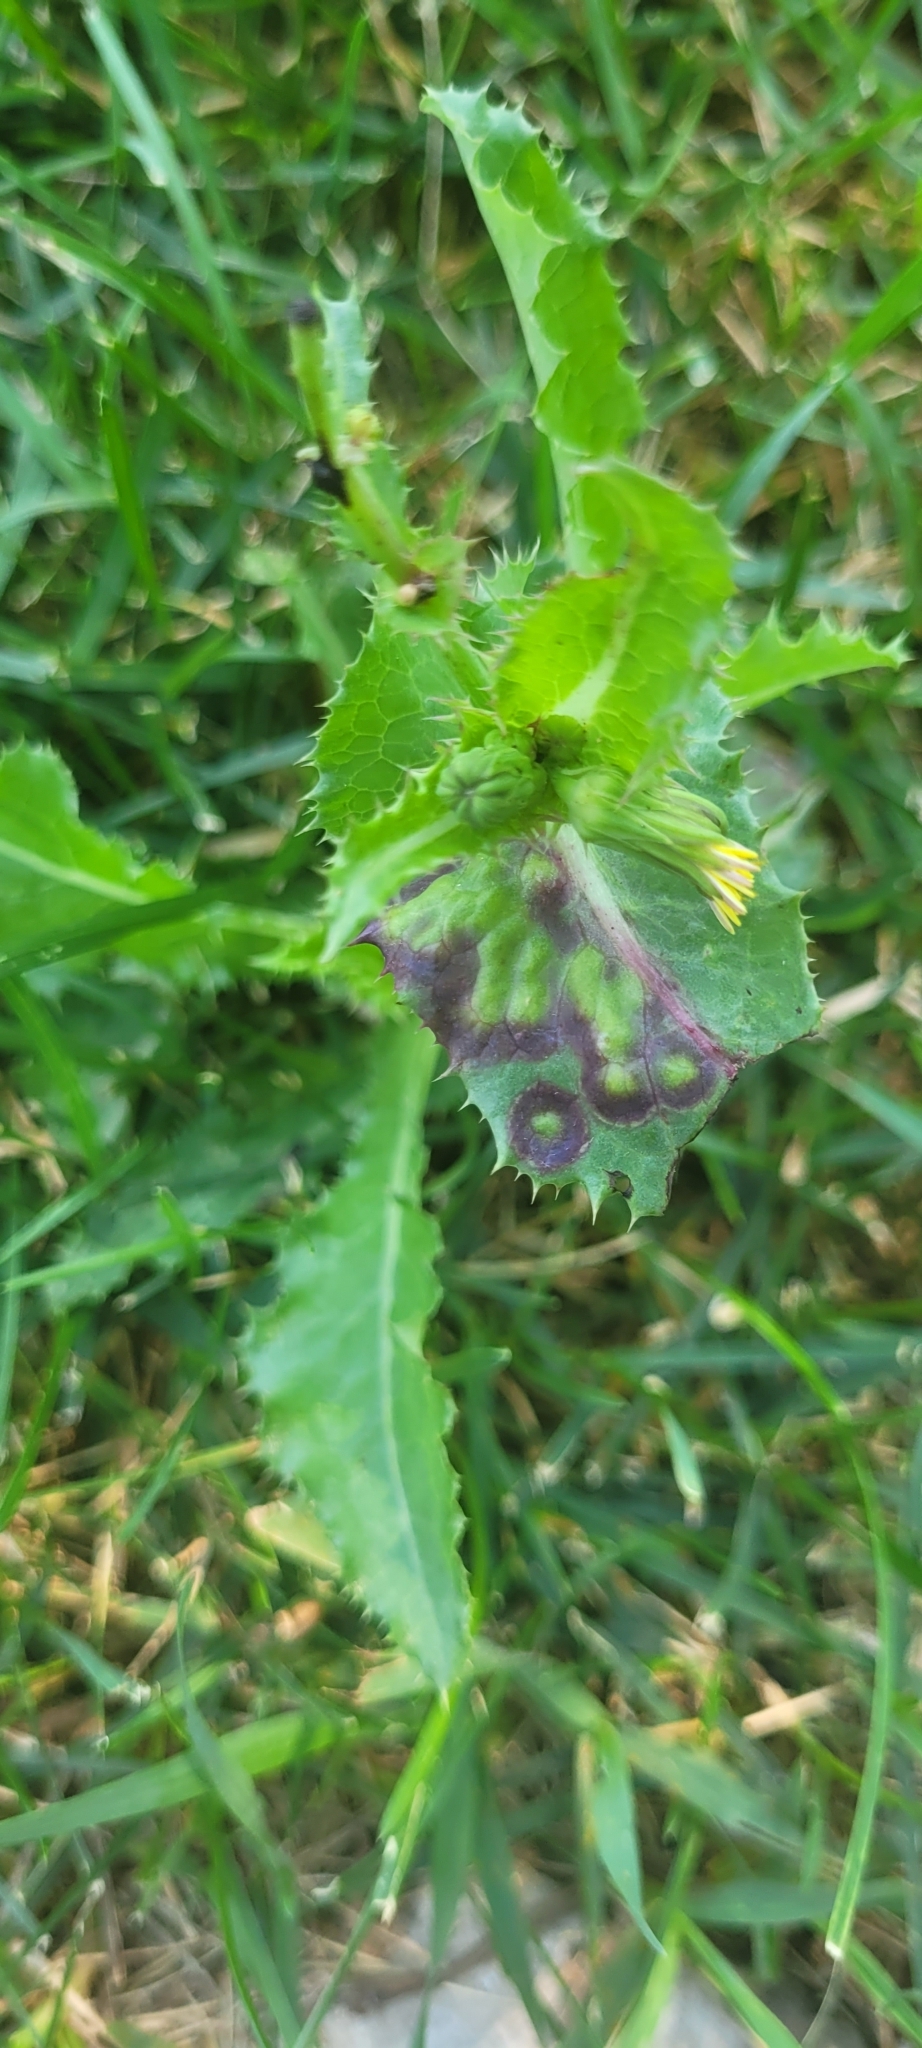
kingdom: Animalia
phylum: Arthropoda
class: Insecta
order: Diptera
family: Cecidomyiidae
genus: Cystiphora
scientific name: Cystiphora sonchi
